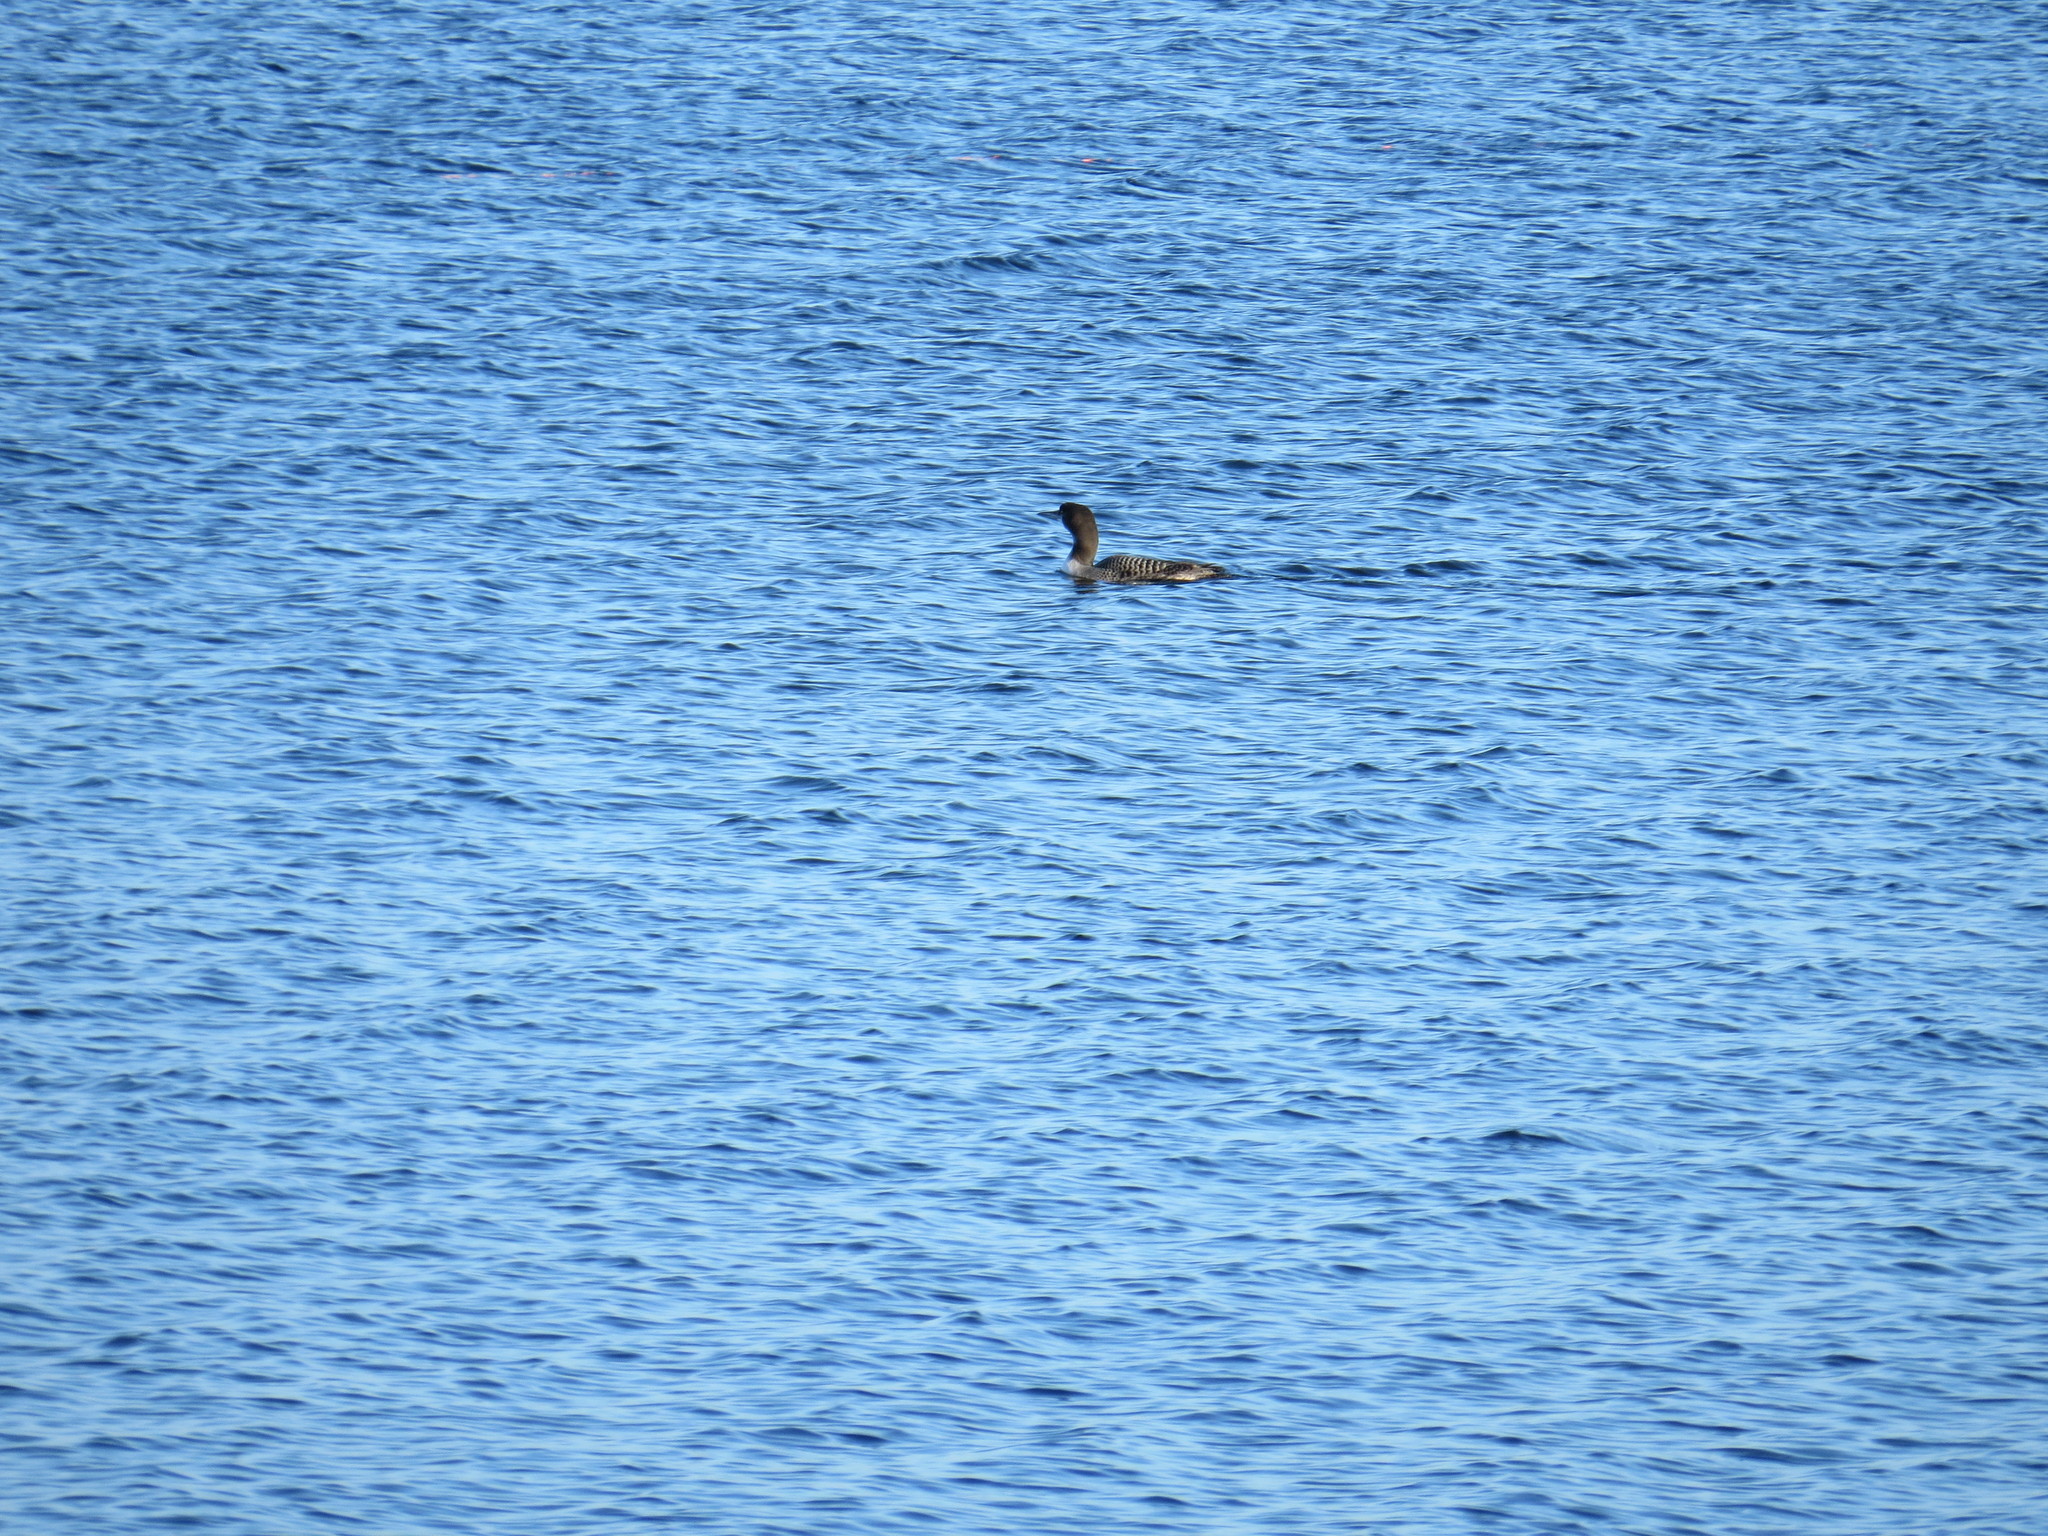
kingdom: Animalia
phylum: Chordata
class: Aves
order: Gaviiformes
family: Gaviidae
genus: Gavia
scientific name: Gavia immer
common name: Common loon
